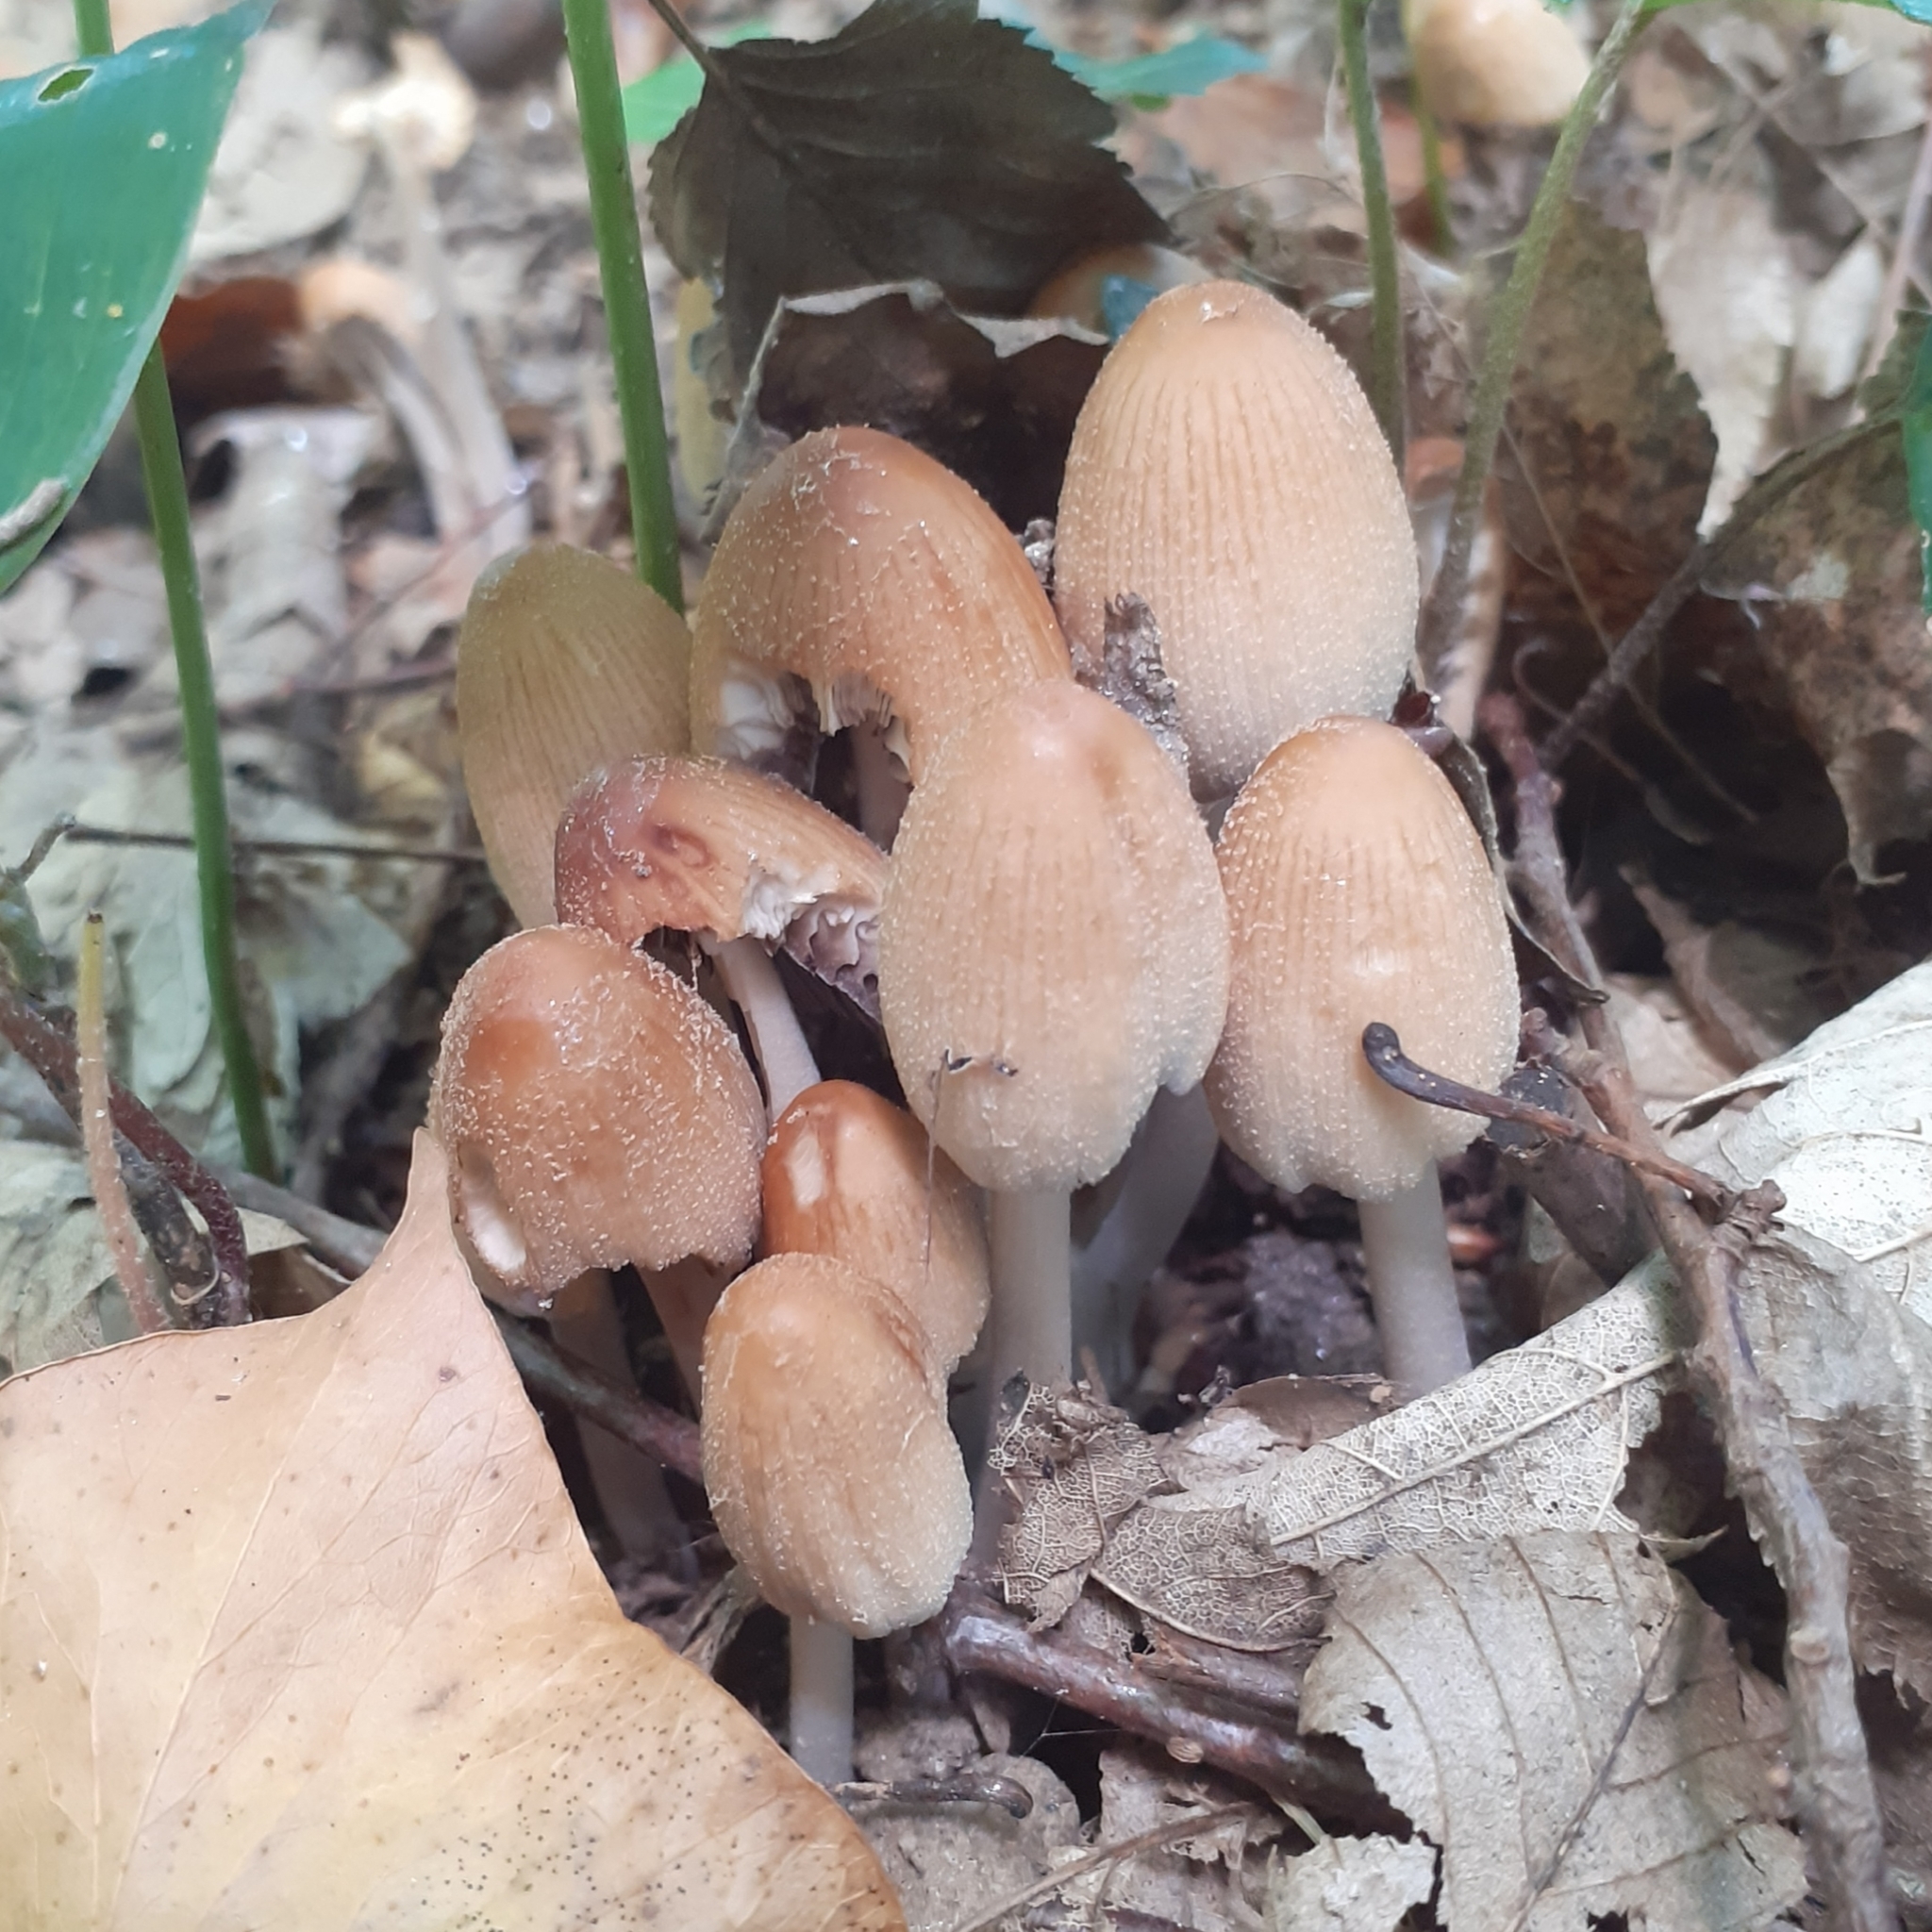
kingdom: Fungi
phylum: Basidiomycota
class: Agaricomycetes
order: Agaricales
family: Psathyrellaceae
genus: Coprinellus
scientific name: Coprinellus micaceus
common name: Glistening ink-cap
